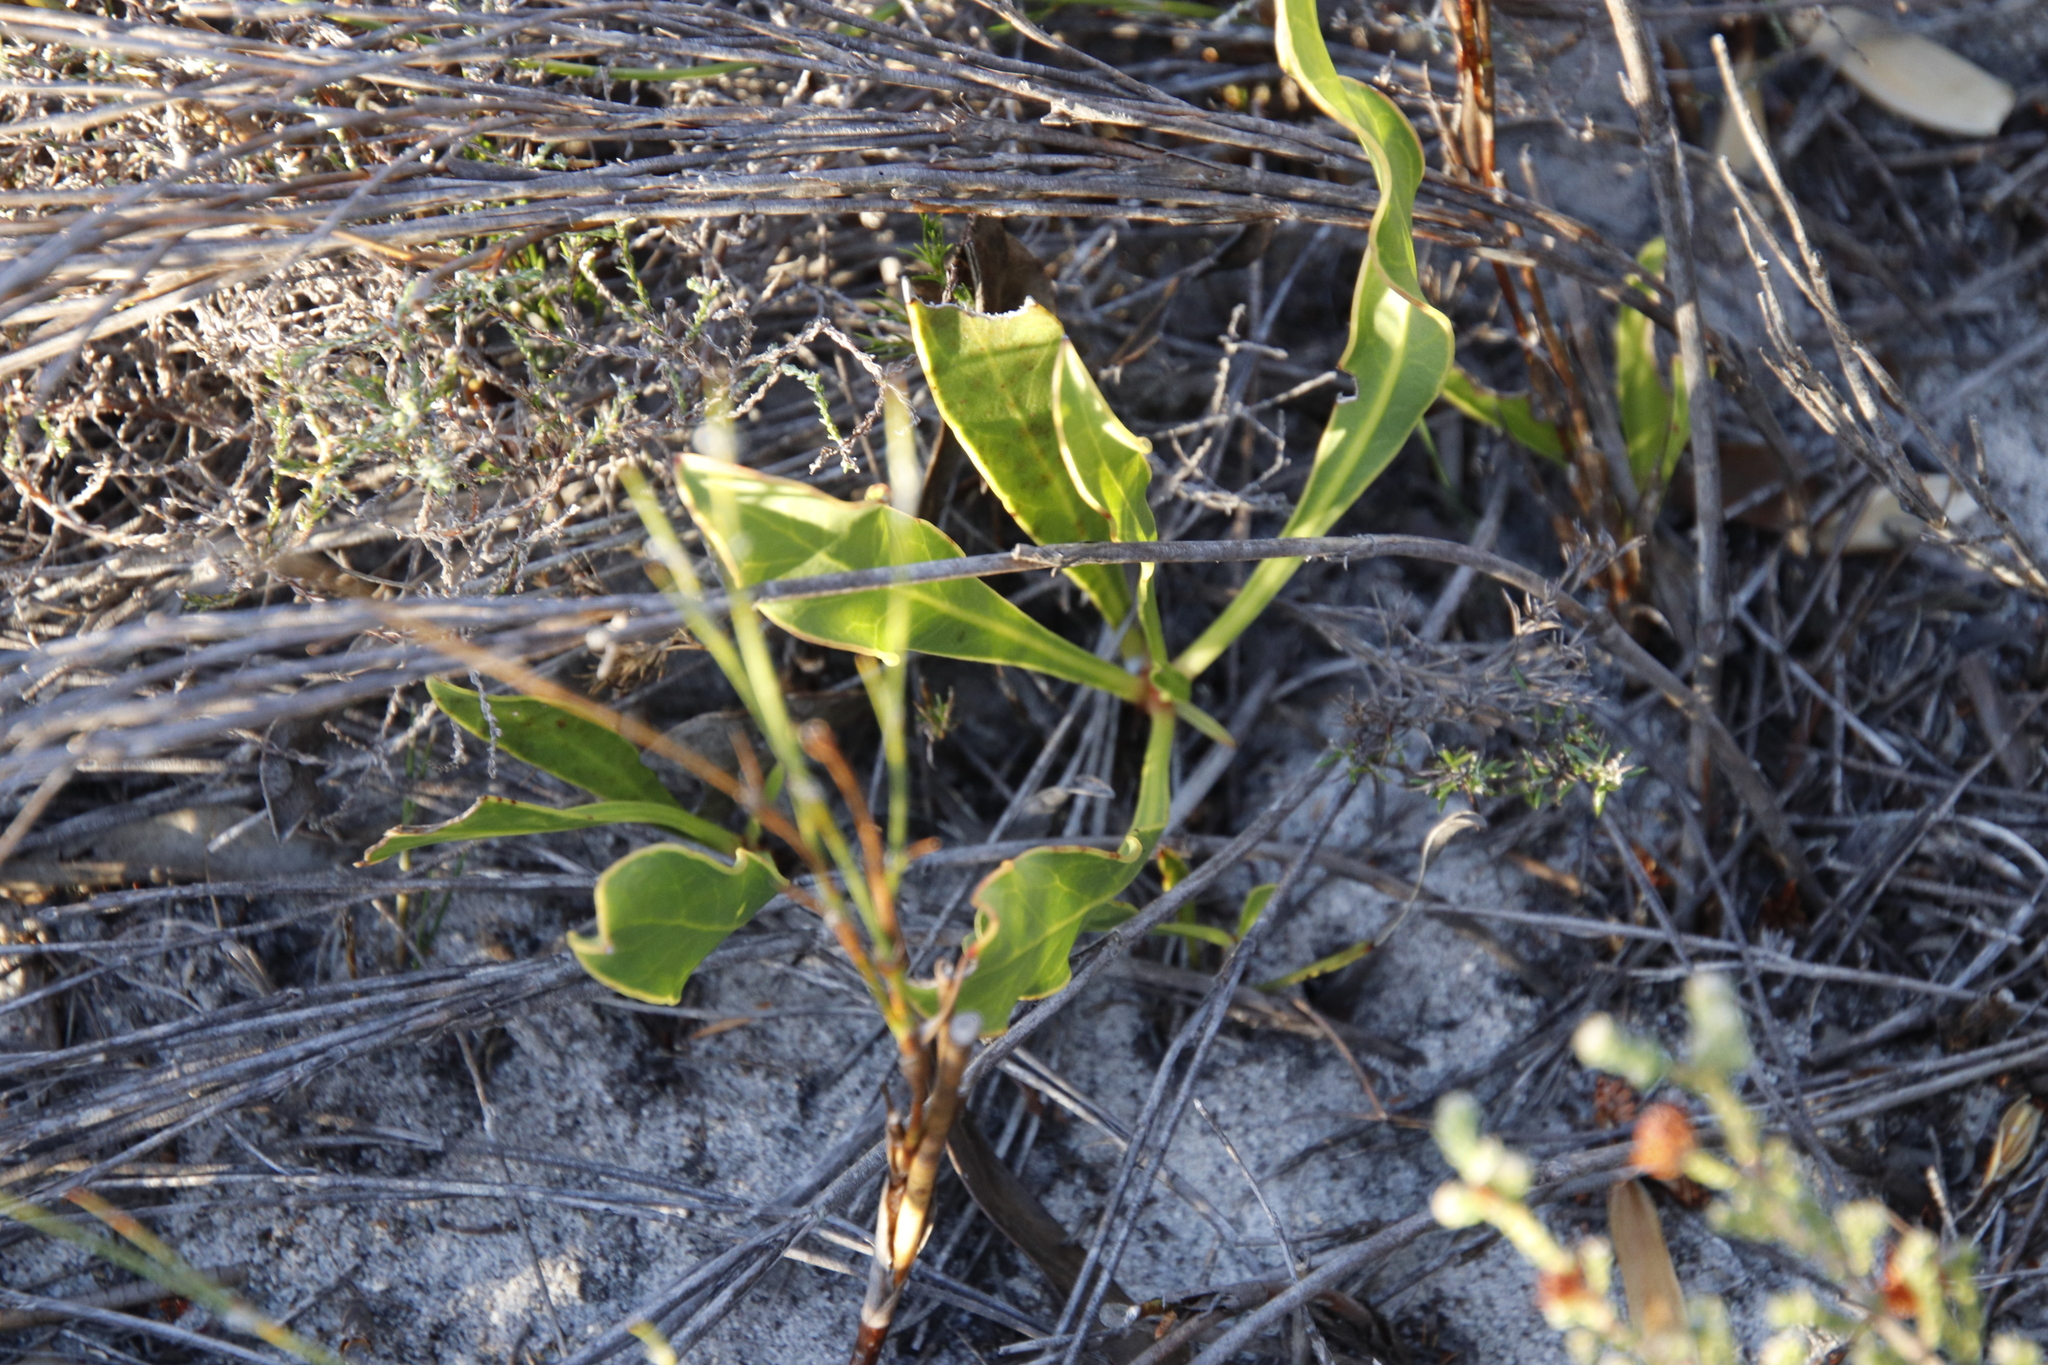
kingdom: Plantae
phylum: Tracheophyta
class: Magnoliopsida
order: Proteales
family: Proteaceae
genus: Protea
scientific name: Protea acaulos
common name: Common ground sugarbush
